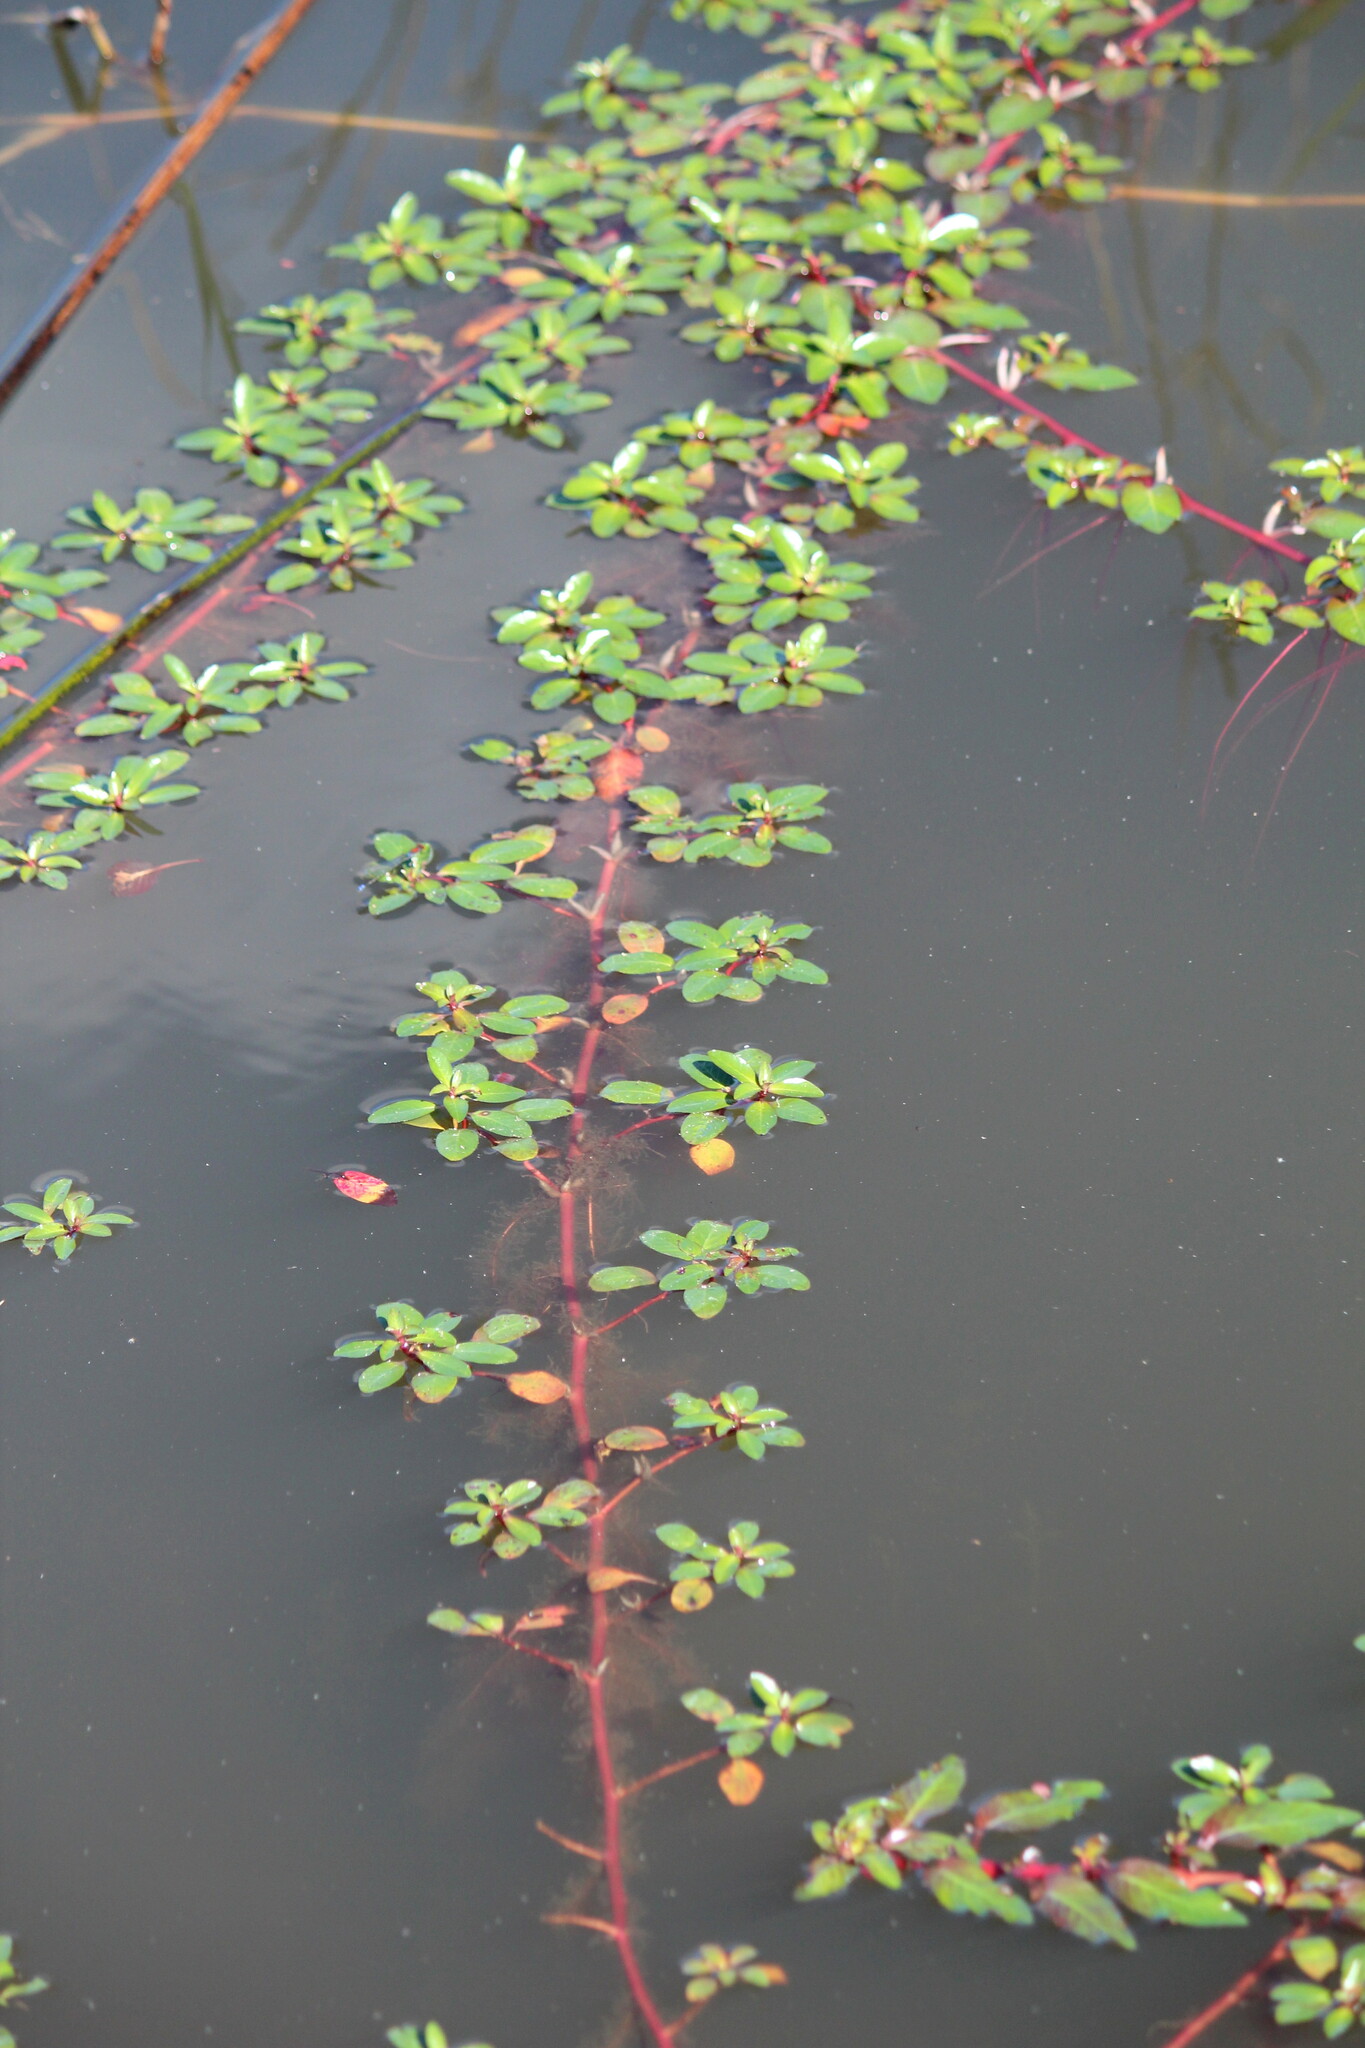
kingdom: Plantae
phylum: Tracheophyta
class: Magnoliopsida
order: Myrtales
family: Onagraceae
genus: Ludwigia
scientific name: Ludwigia prostrata
